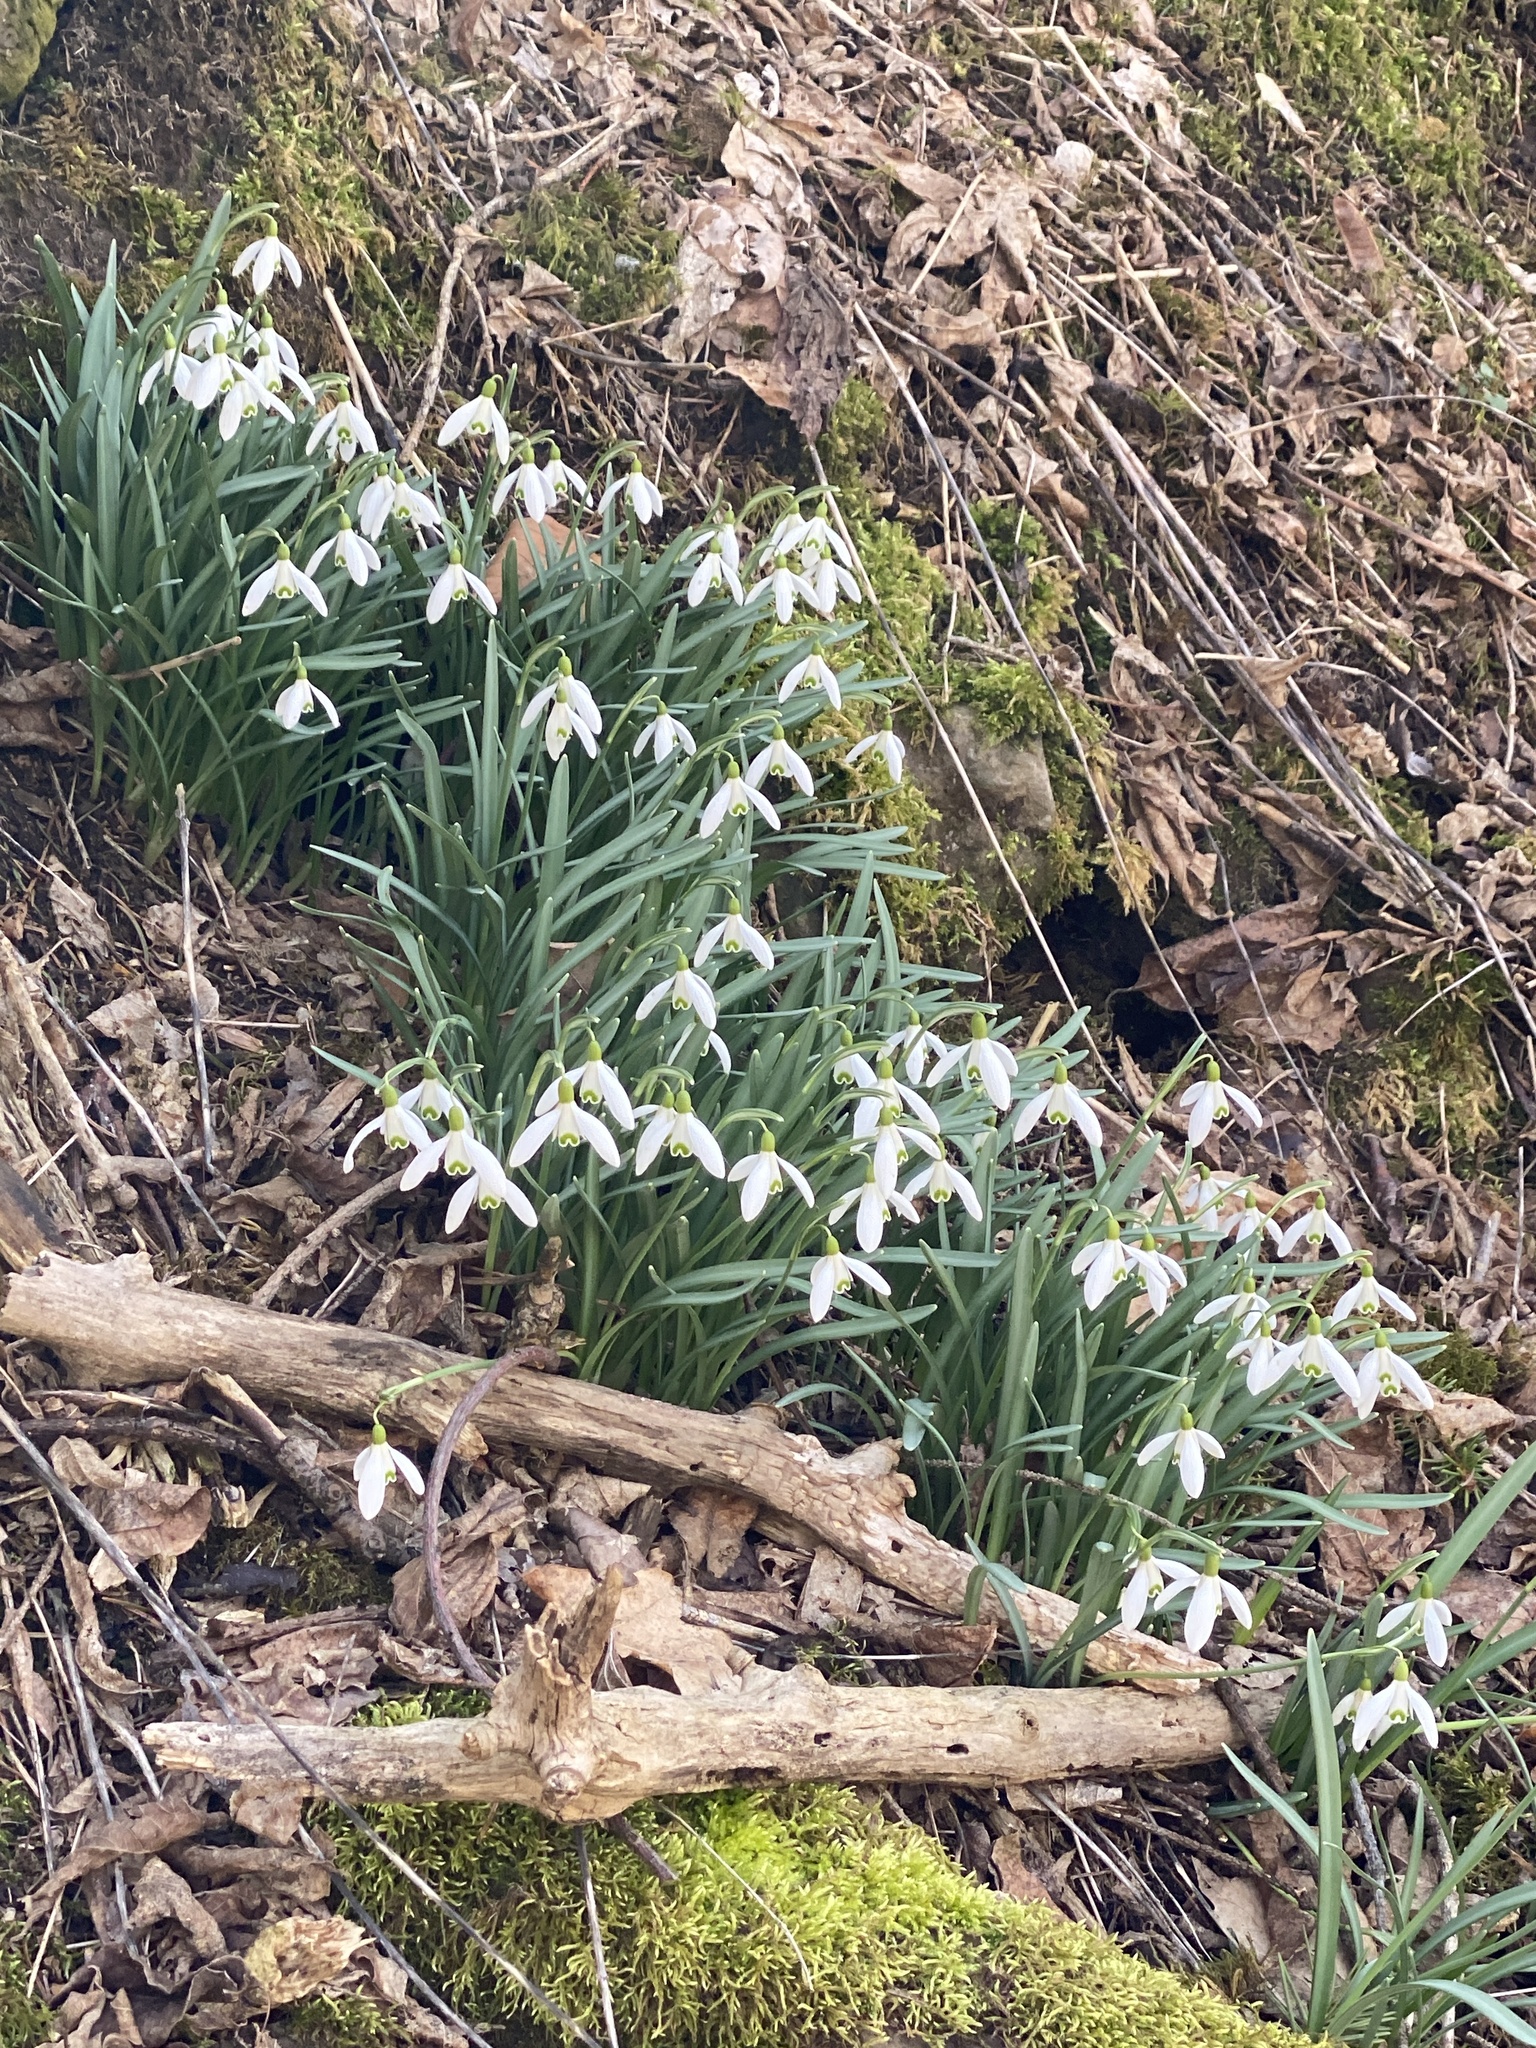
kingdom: Plantae
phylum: Tracheophyta
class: Liliopsida
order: Asparagales
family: Amaryllidaceae
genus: Galanthus
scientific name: Galanthus nivalis
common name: Snowdrop
